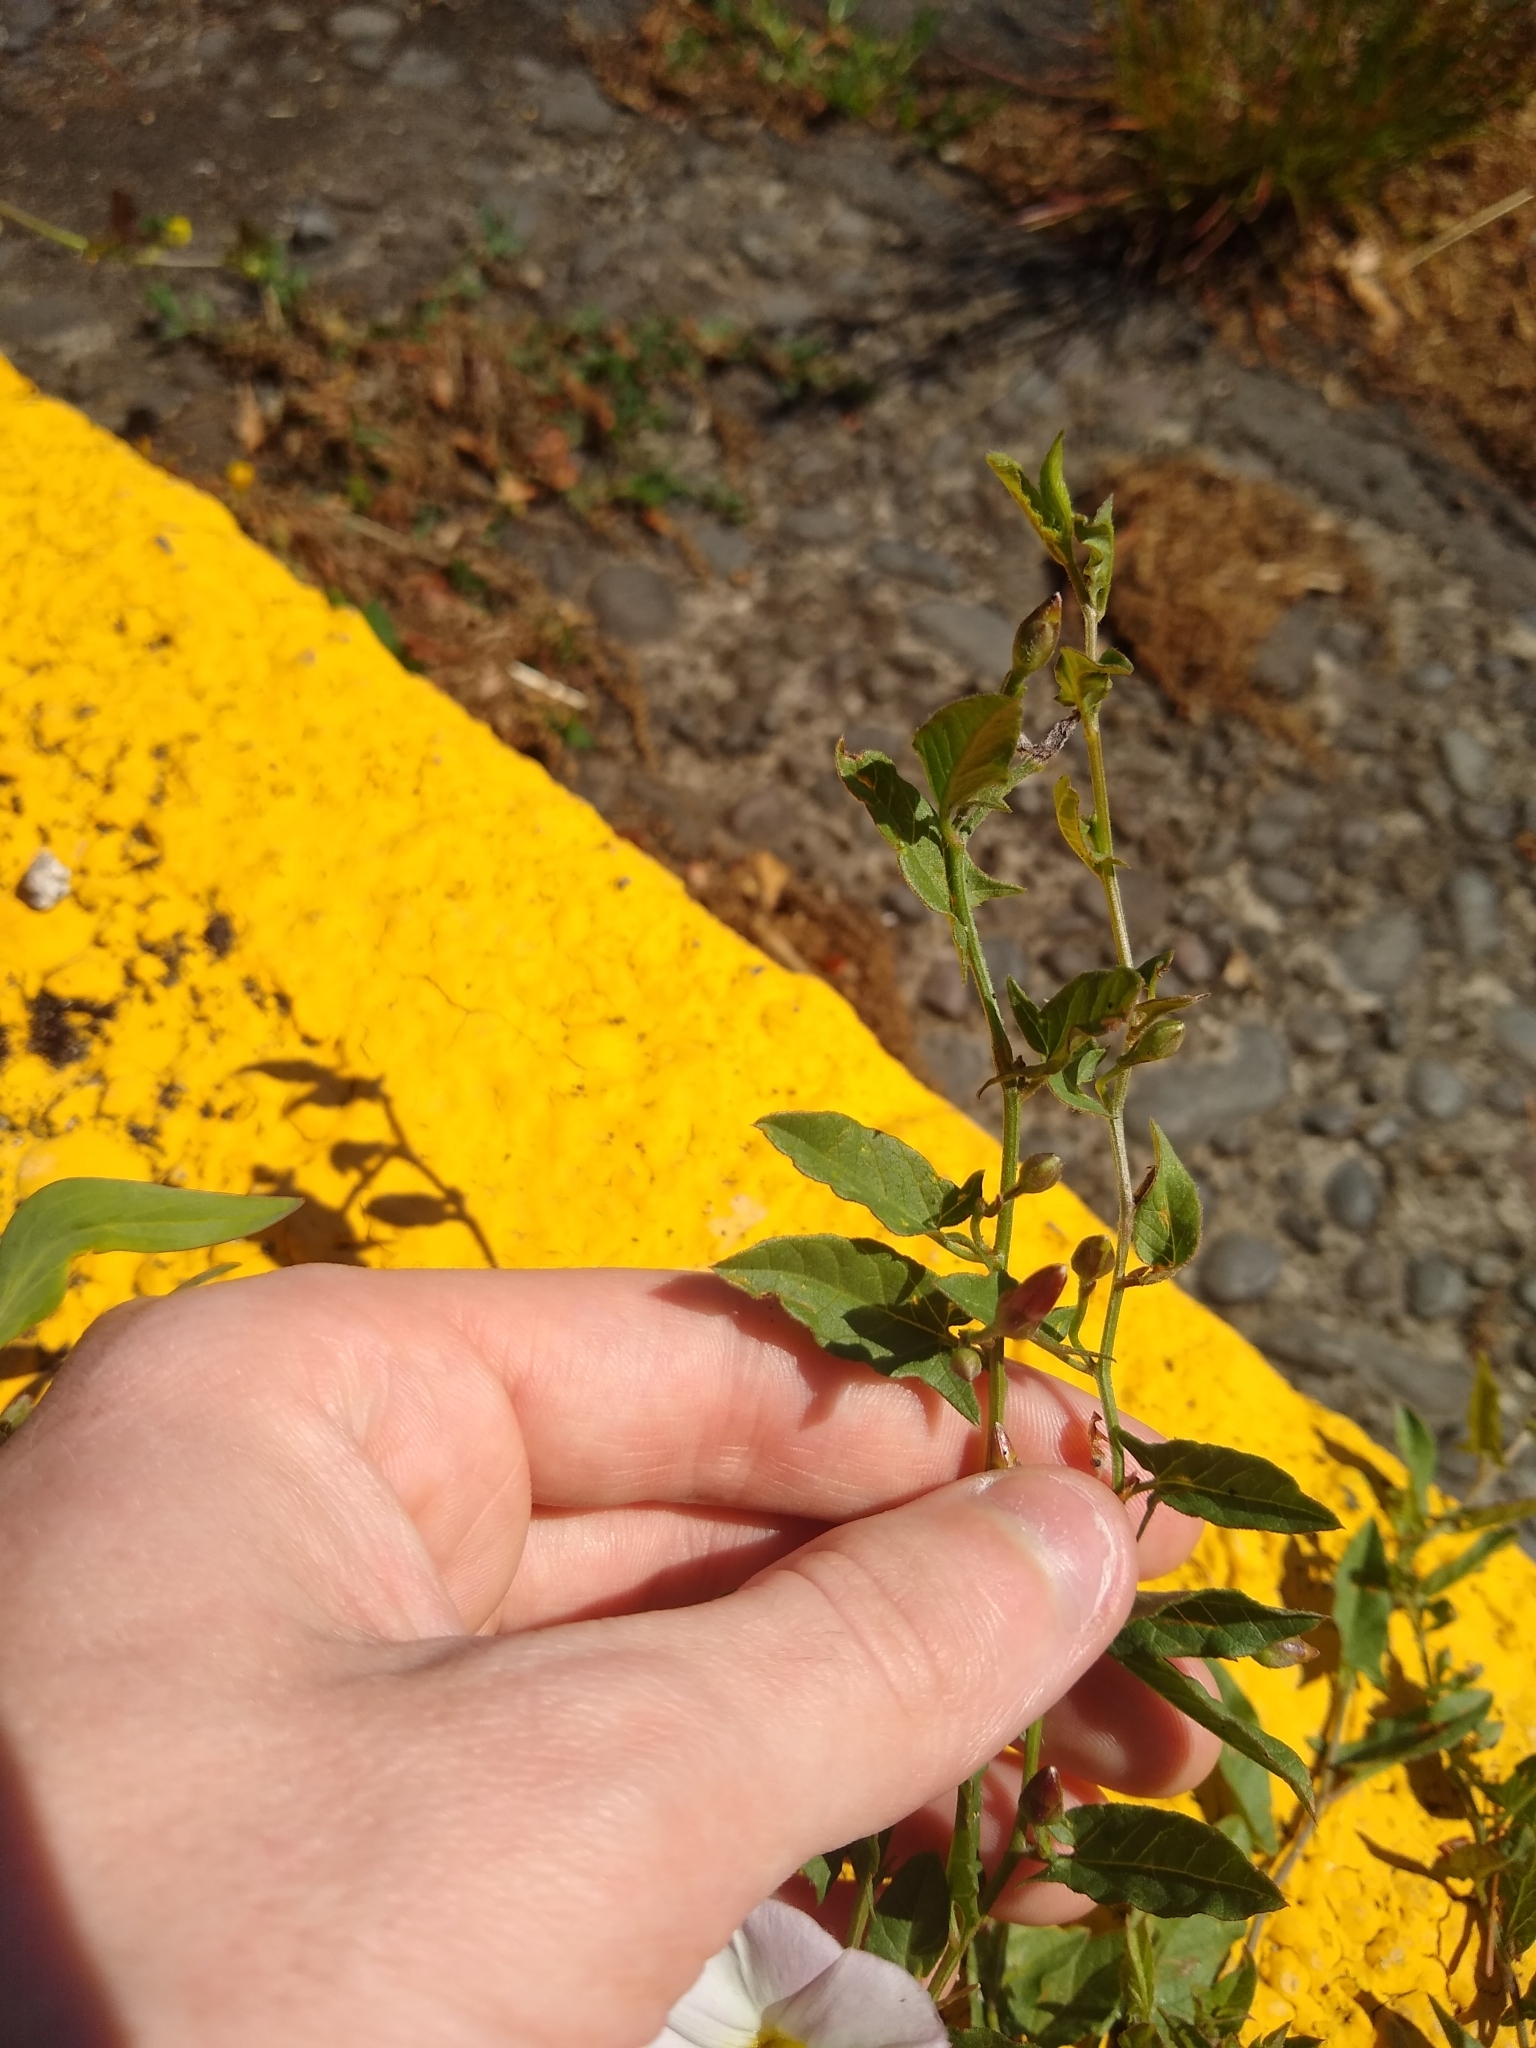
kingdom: Plantae
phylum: Tracheophyta
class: Magnoliopsida
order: Solanales
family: Convolvulaceae
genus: Convolvulus
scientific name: Convolvulus arvensis
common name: Field bindweed
